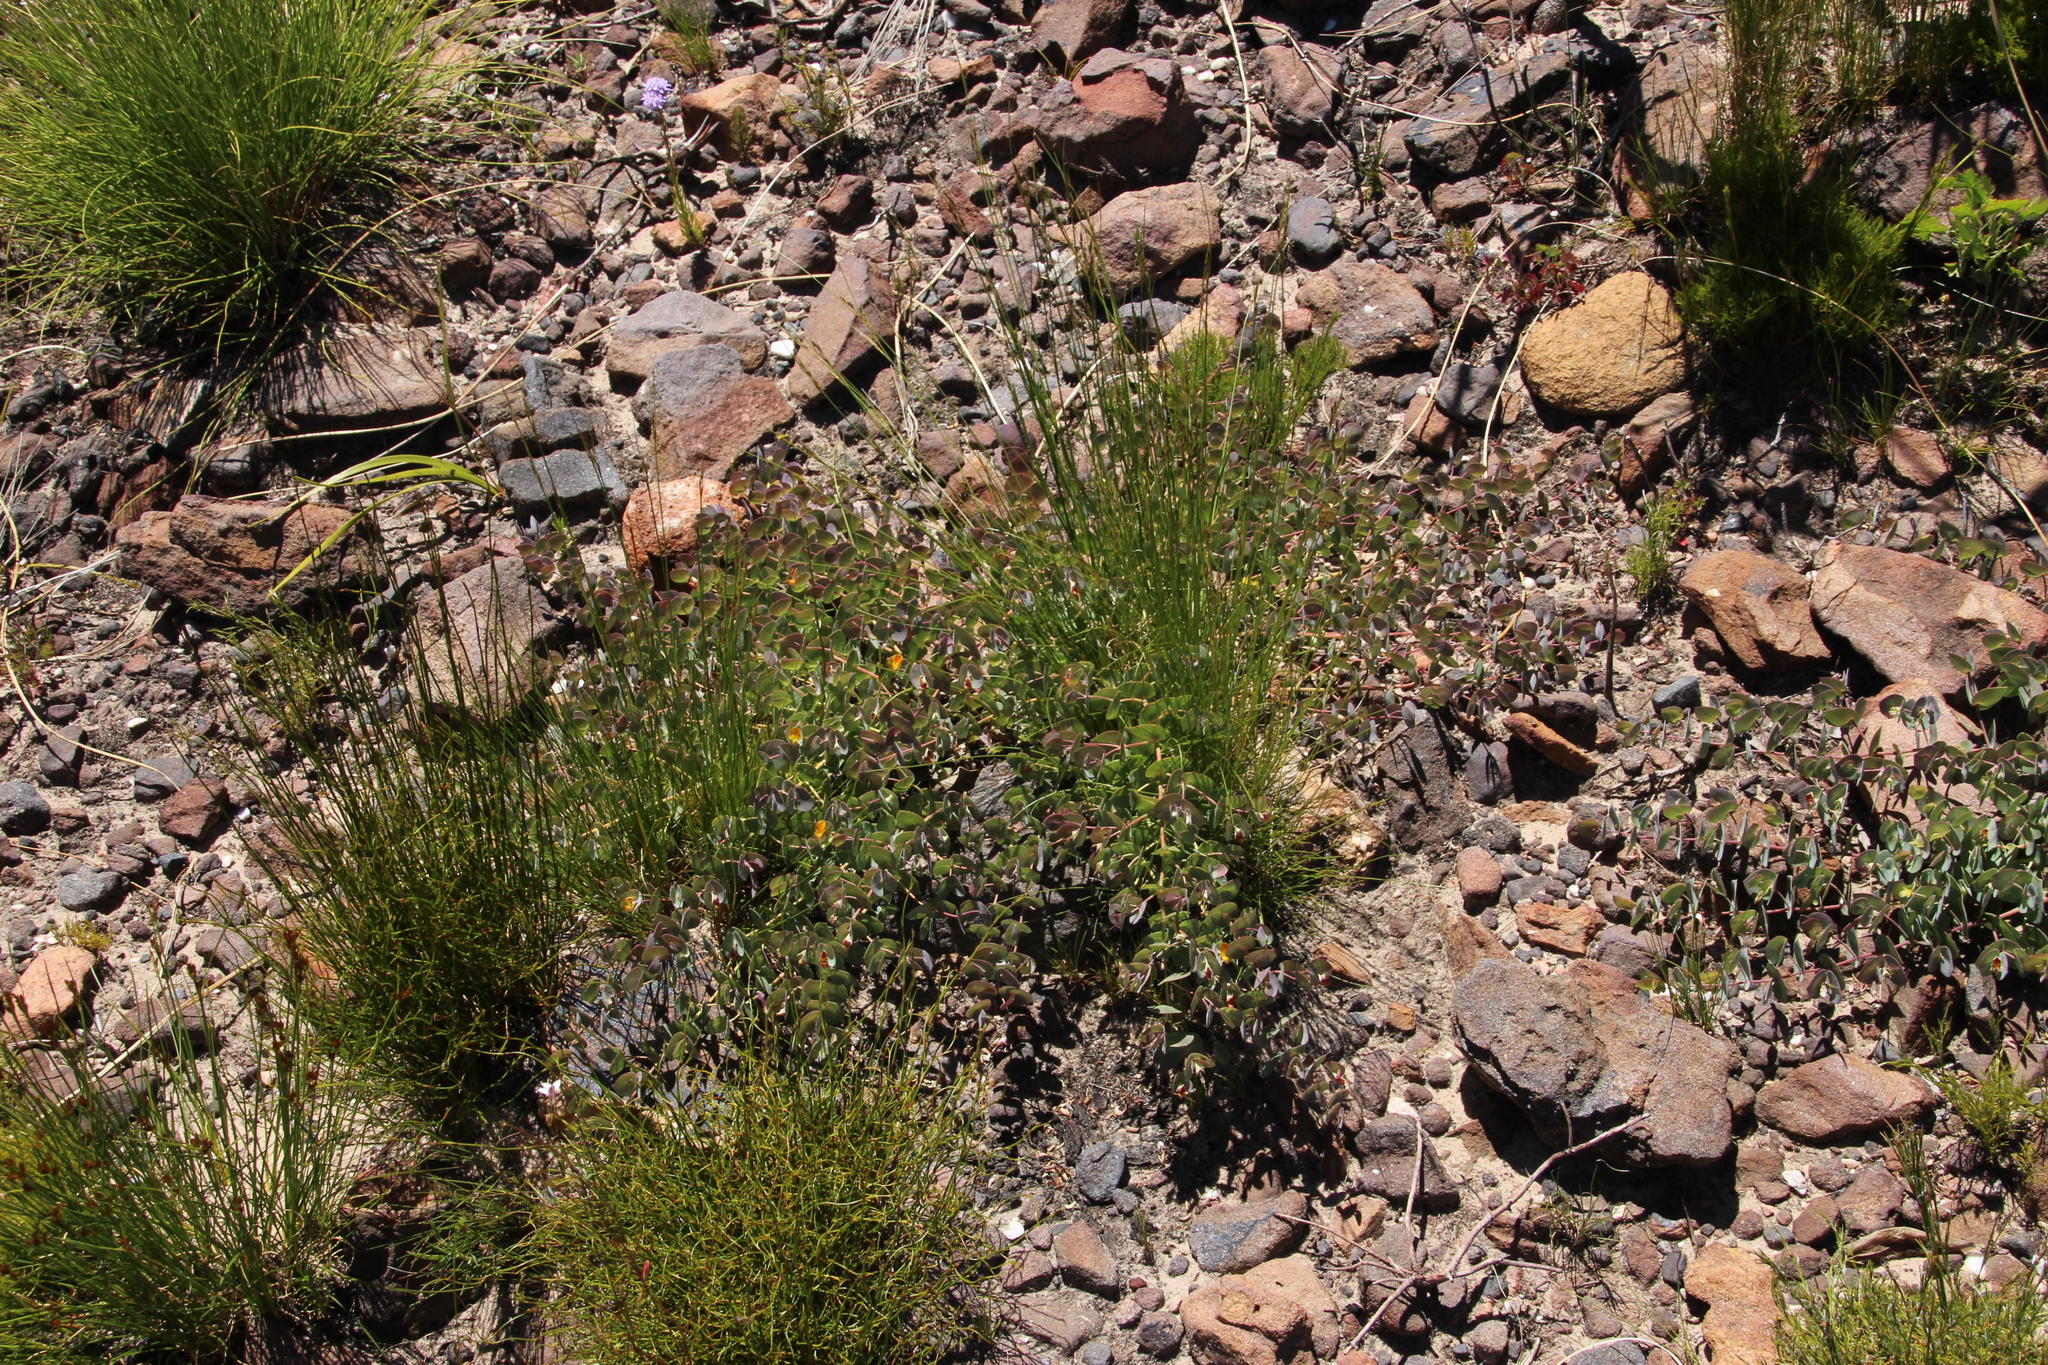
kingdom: Plantae
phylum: Tracheophyta
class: Magnoliopsida
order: Fabales
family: Fabaceae
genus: Rafnia
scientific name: Rafnia acuminata
